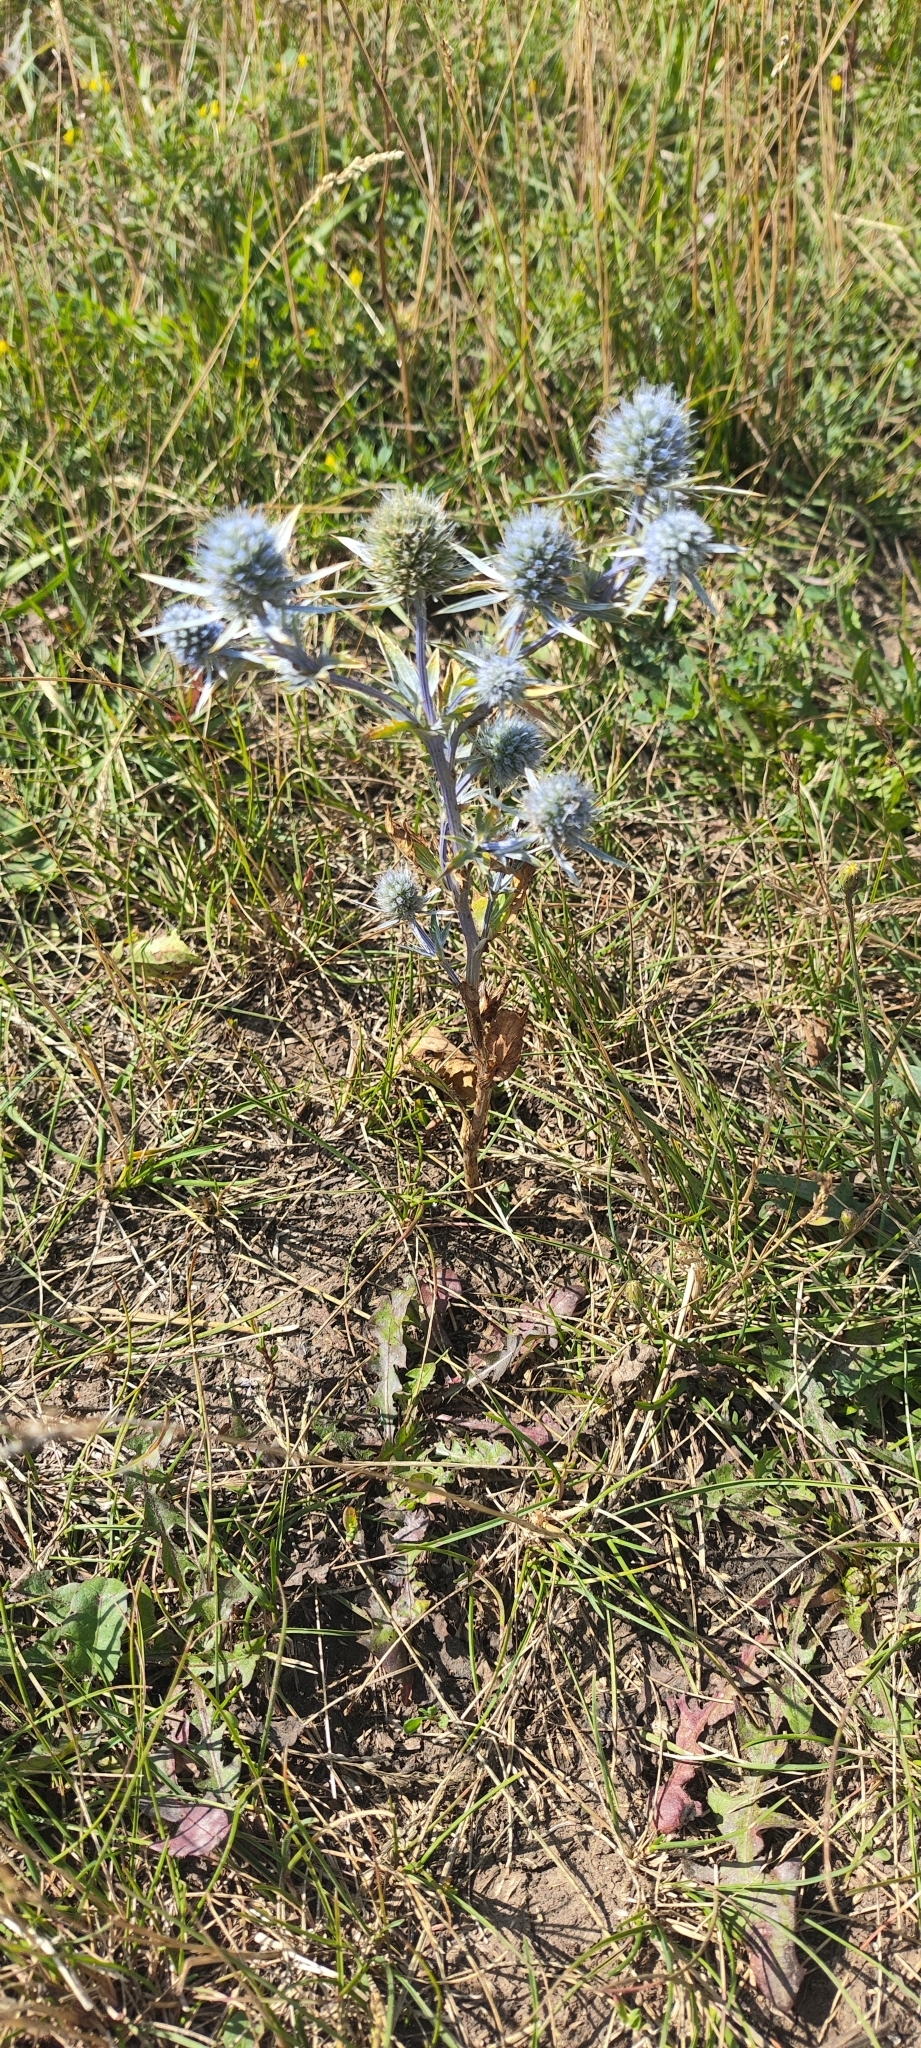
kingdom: Plantae
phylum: Tracheophyta
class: Magnoliopsida
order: Apiales
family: Apiaceae
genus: Eryngium
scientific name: Eryngium planum
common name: Blue eryngo
